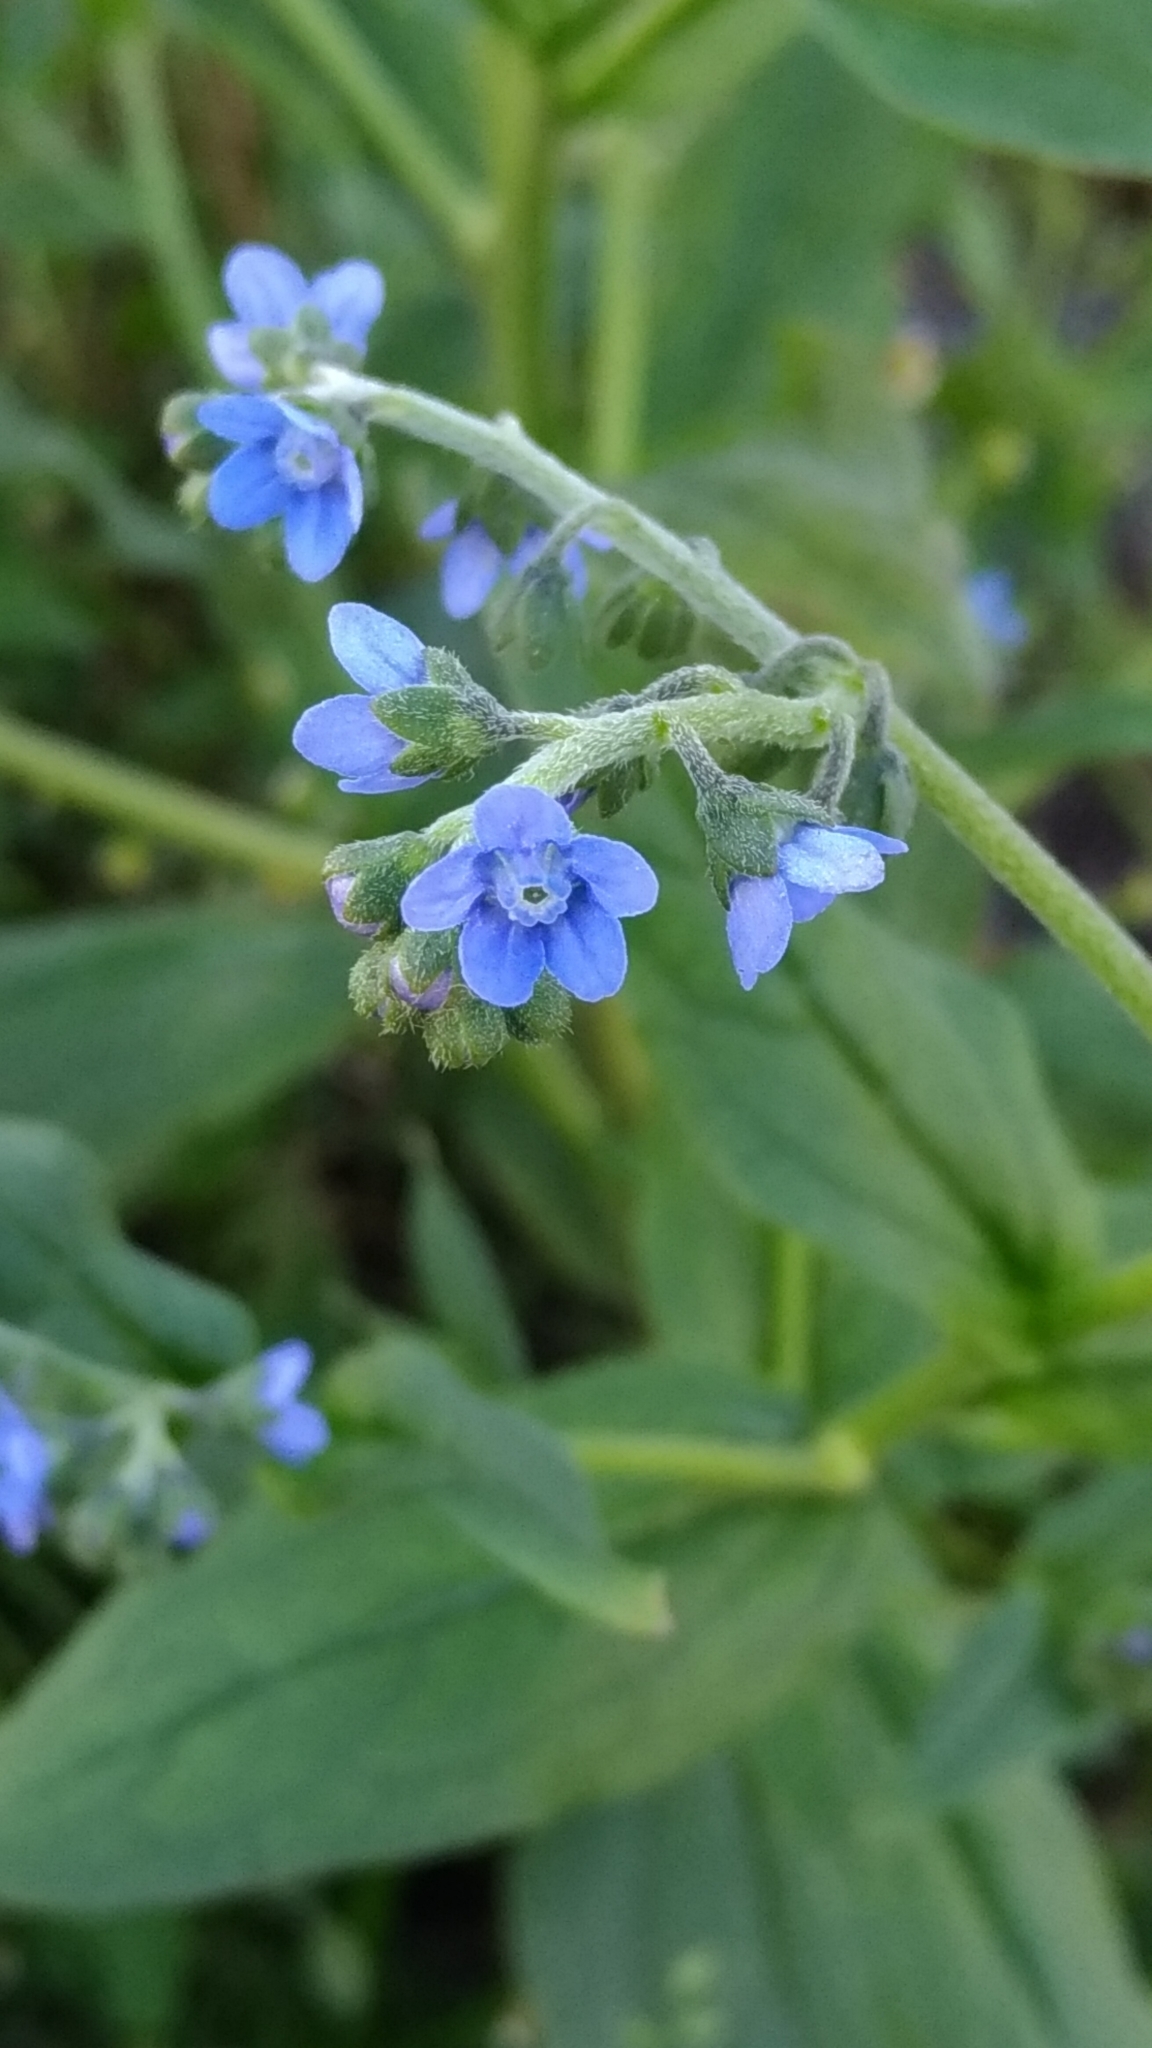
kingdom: Plantae
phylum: Tracheophyta
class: Magnoliopsida
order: Boraginales
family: Boraginaceae
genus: Cynoglossum
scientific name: Cynoglossum zeylanicum
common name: Ceylon hound's tongue
